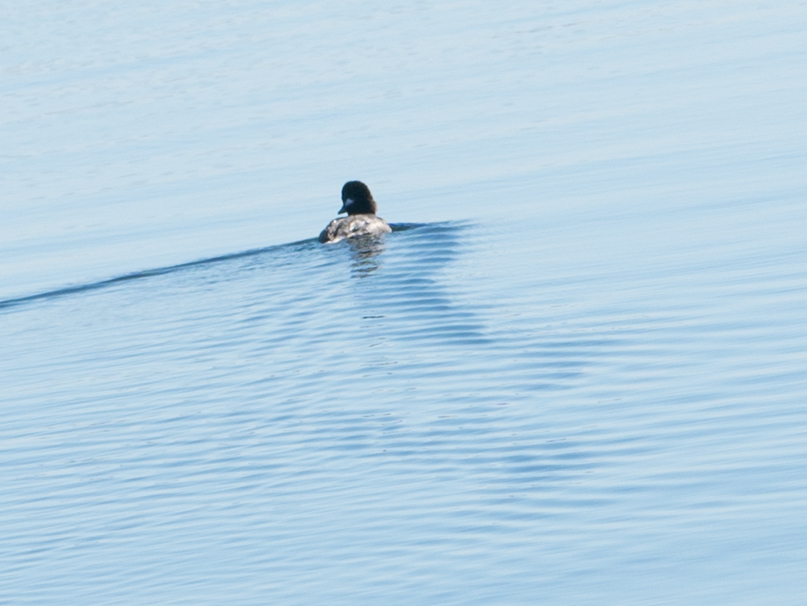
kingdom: Animalia
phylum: Chordata
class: Aves
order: Anseriformes
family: Anatidae
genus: Bucephala
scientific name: Bucephala albeola
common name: Bufflehead
